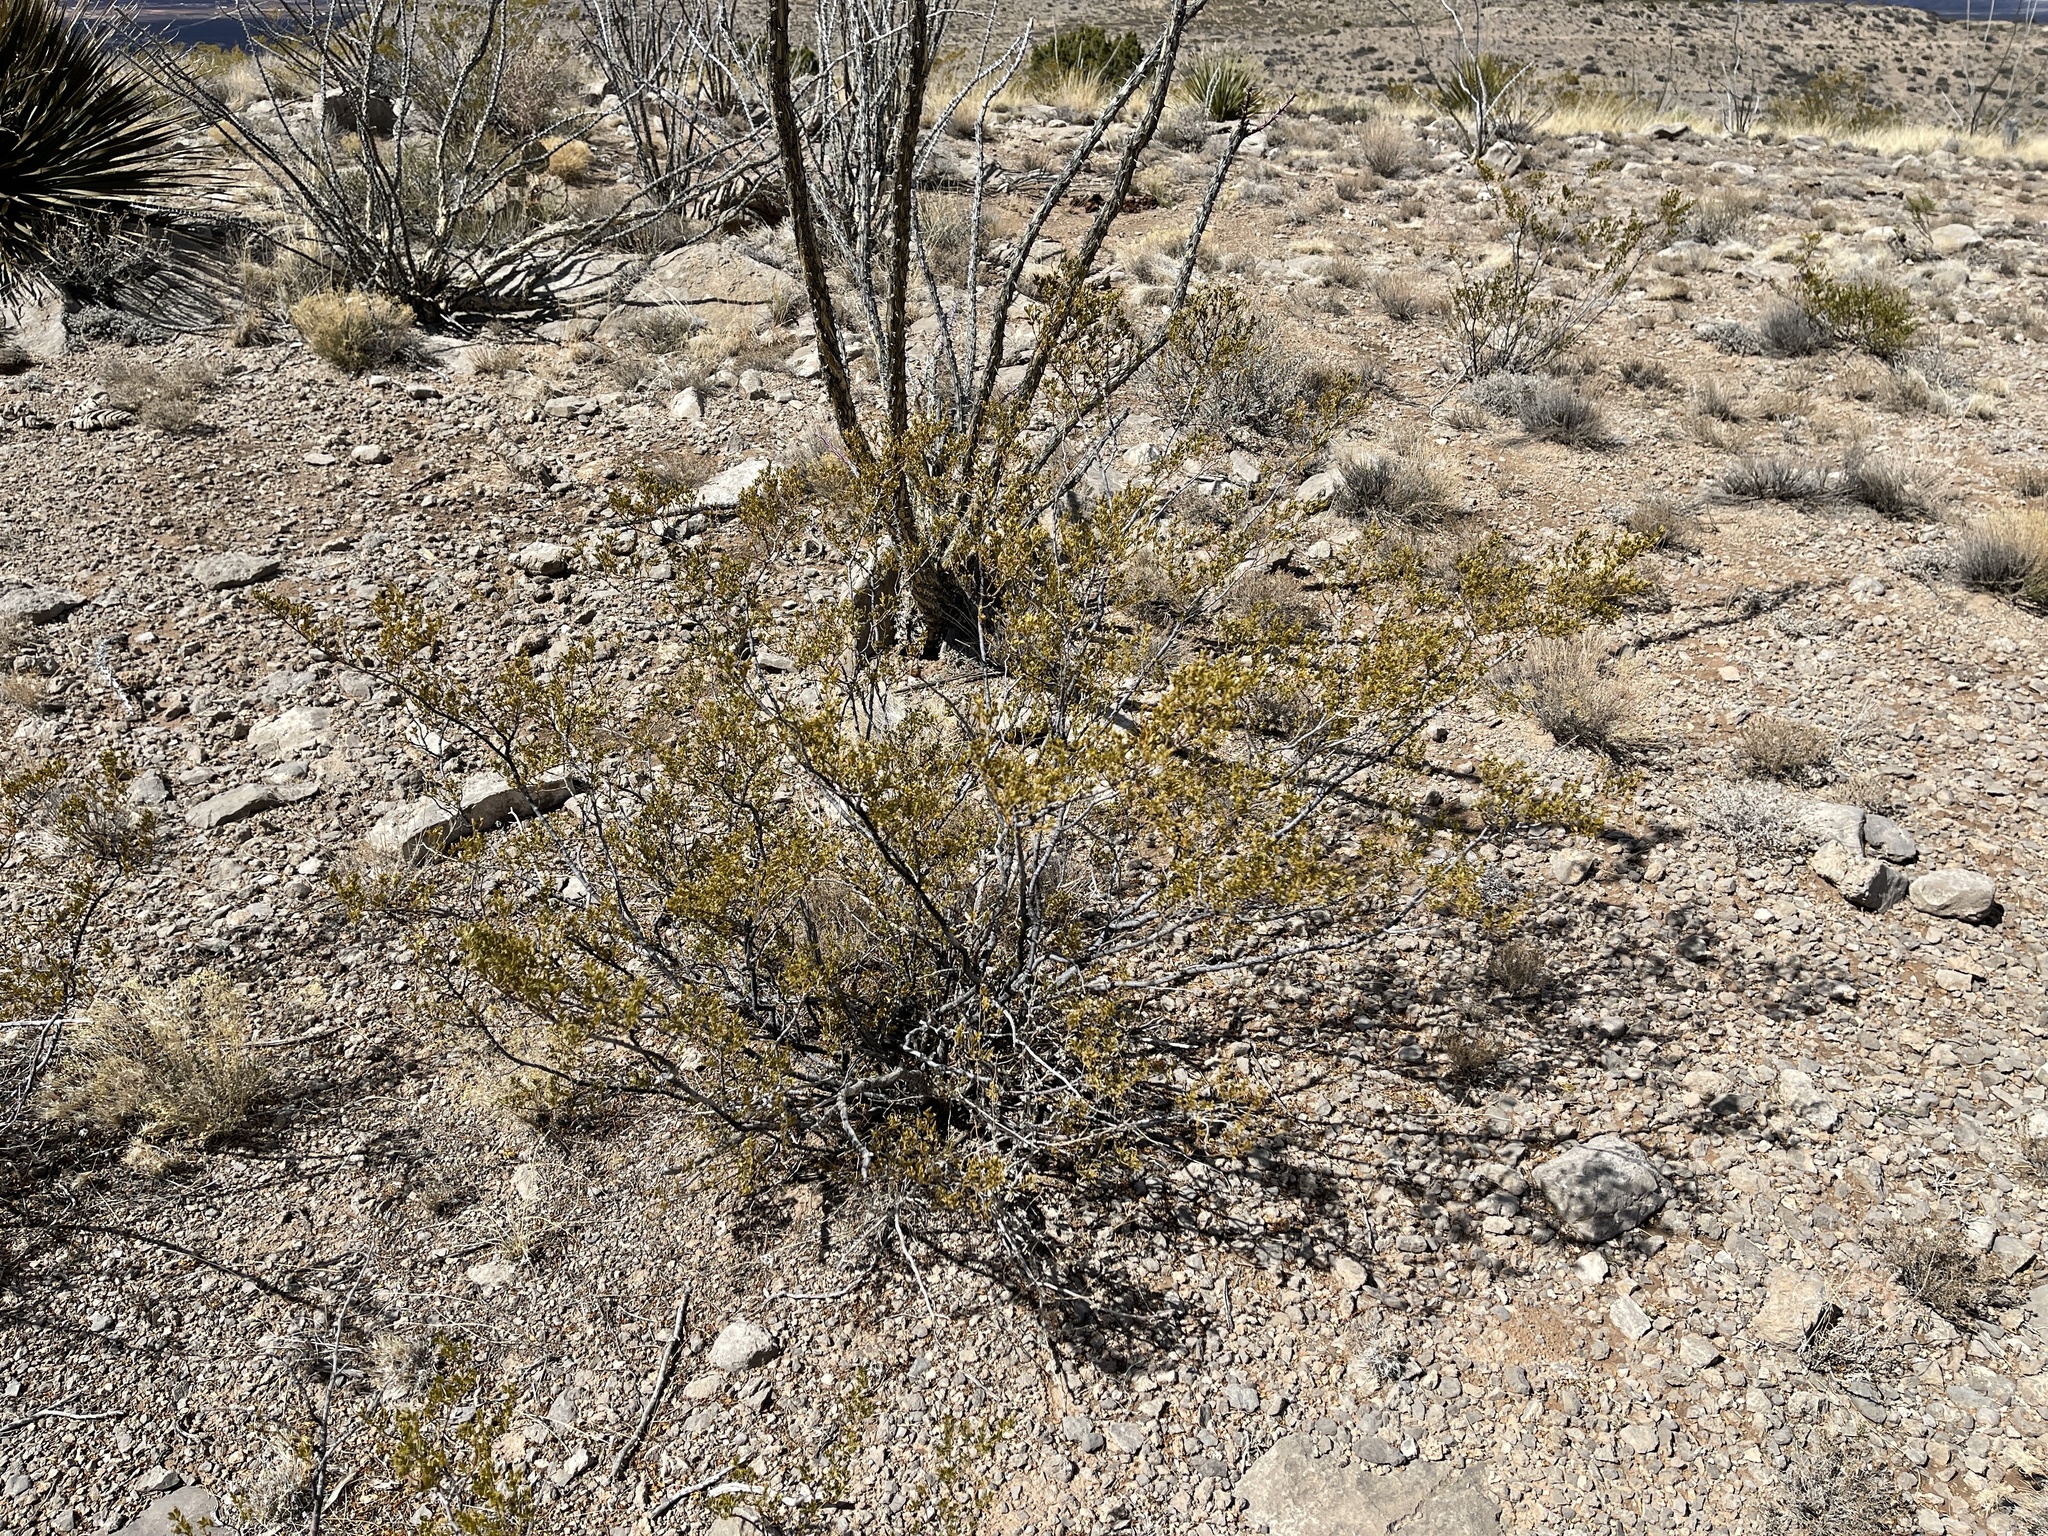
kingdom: Plantae
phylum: Tracheophyta
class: Magnoliopsida
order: Zygophyllales
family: Zygophyllaceae
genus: Larrea
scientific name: Larrea tridentata
